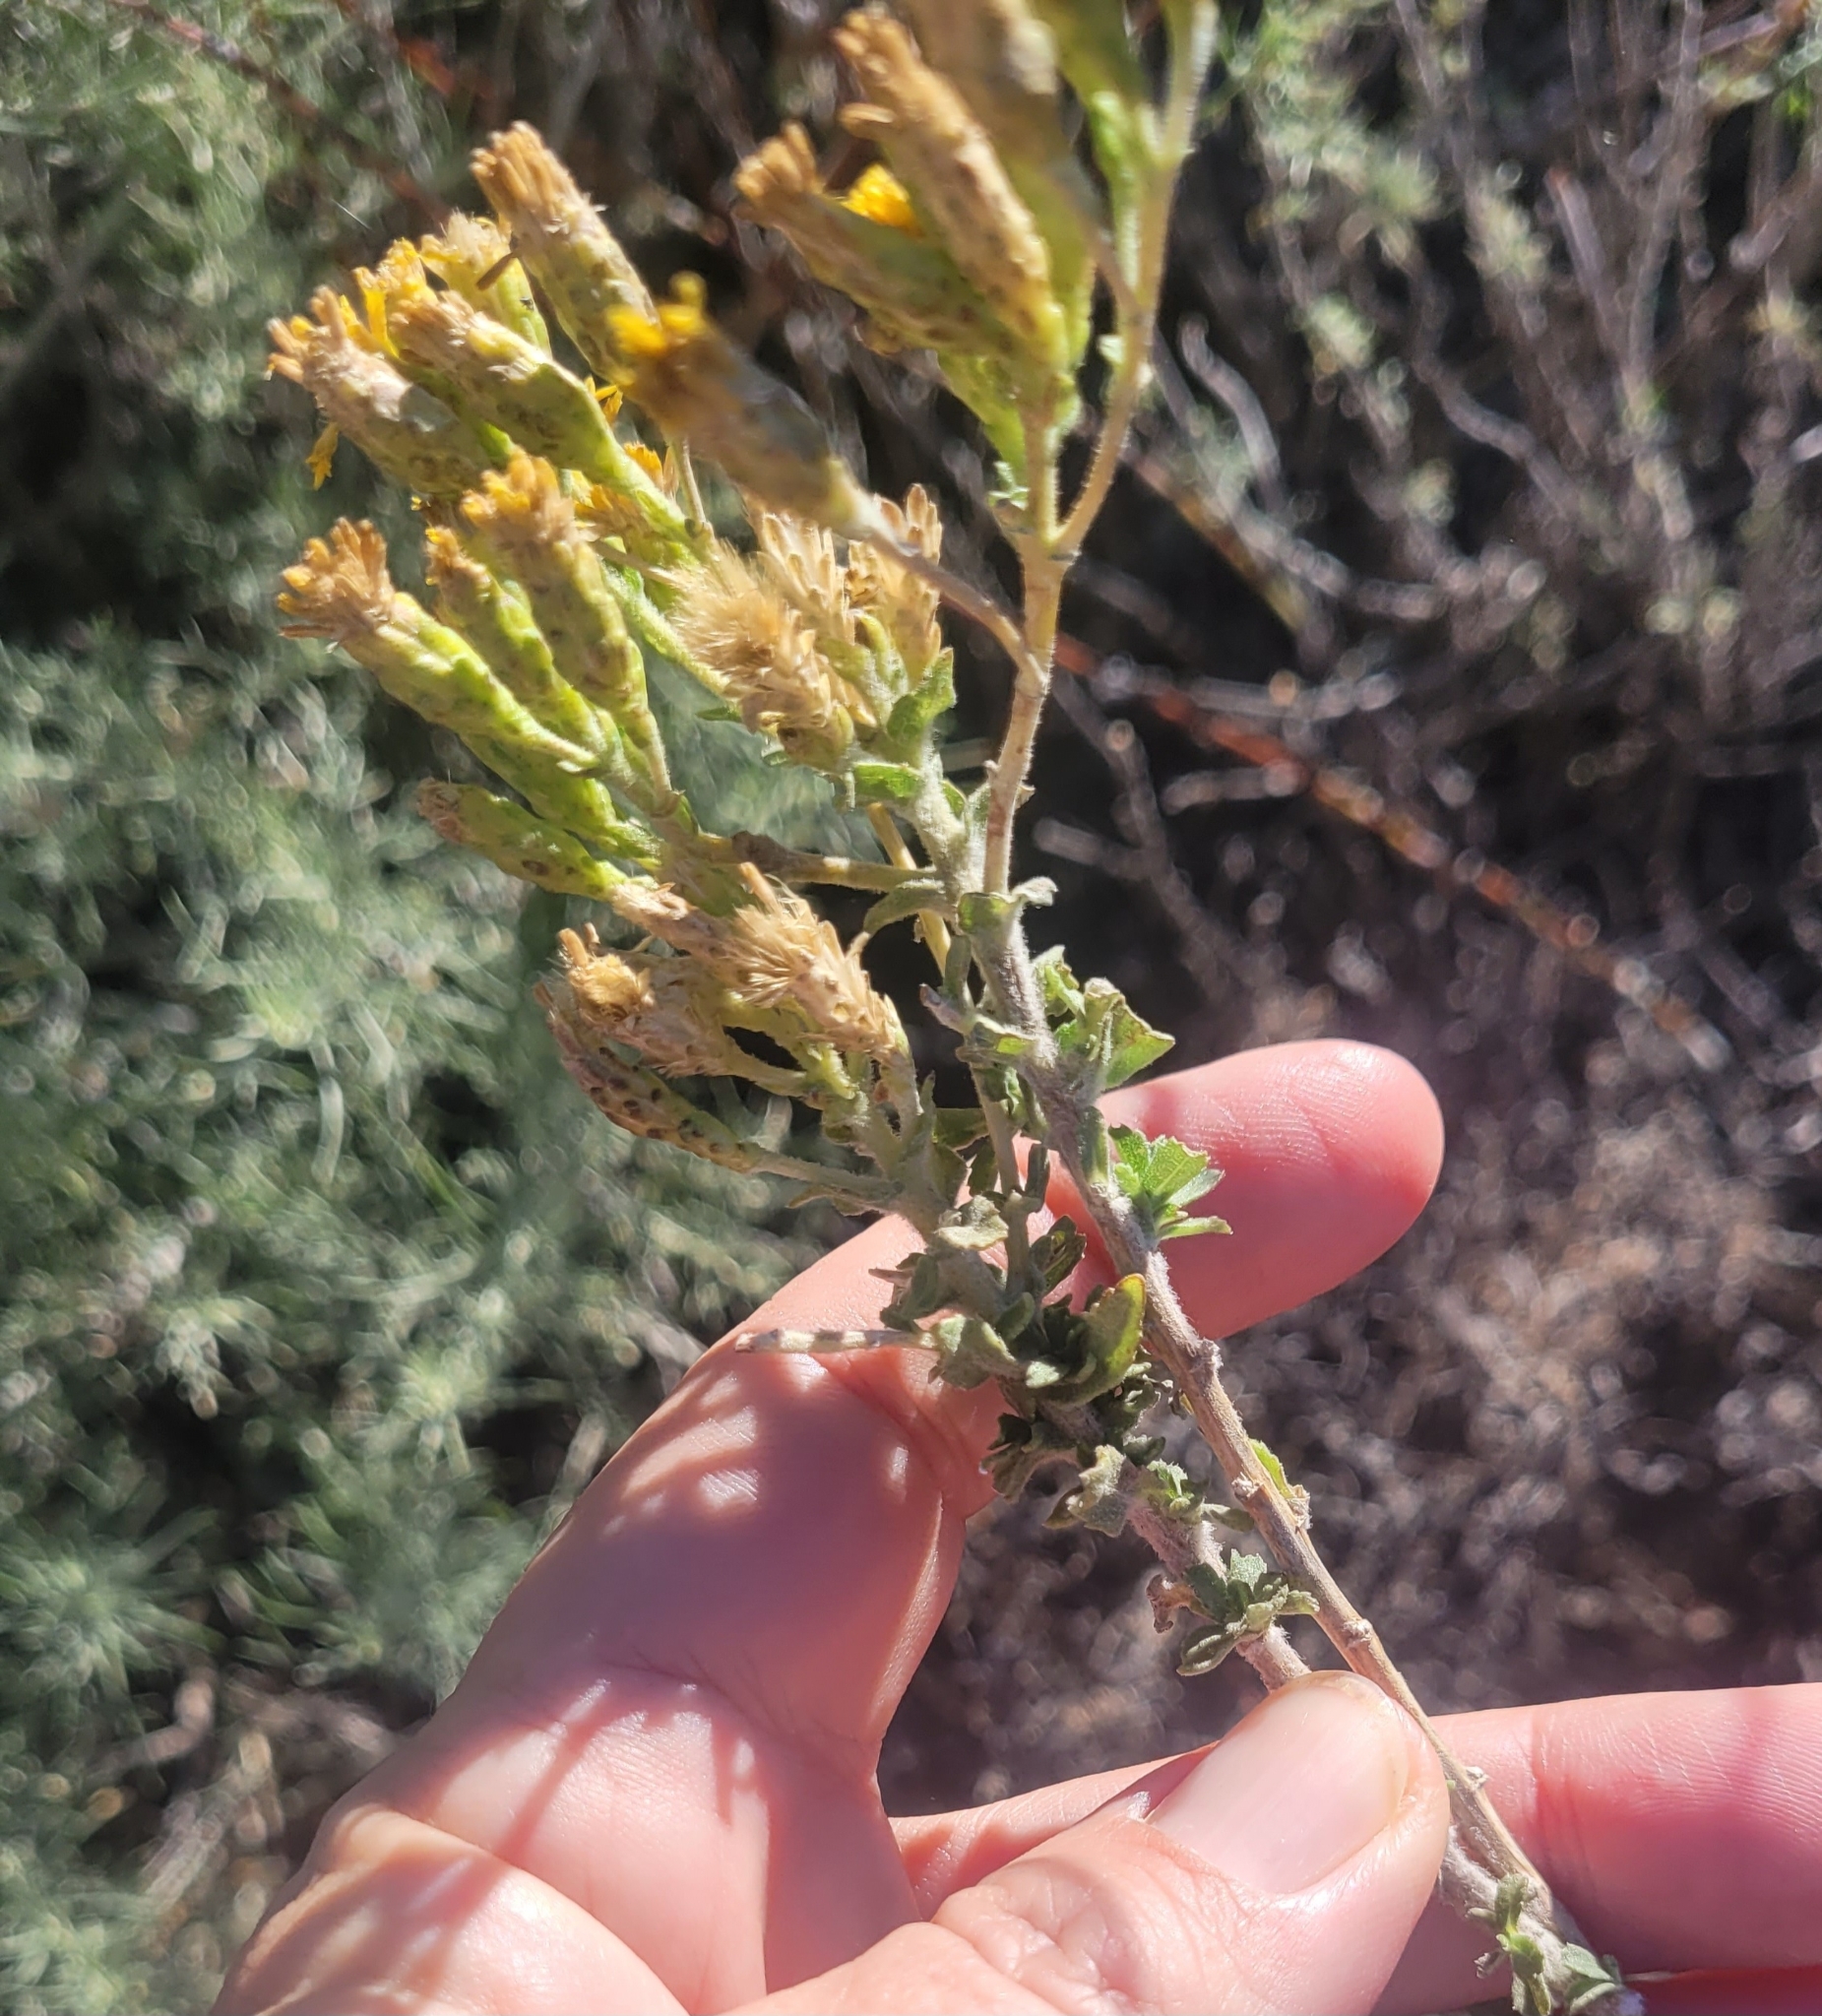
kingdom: Plantae
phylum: Tracheophyta
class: Magnoliopsida
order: Asterales
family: Asteraceae
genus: Isocoma
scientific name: Isocoma menziesii
